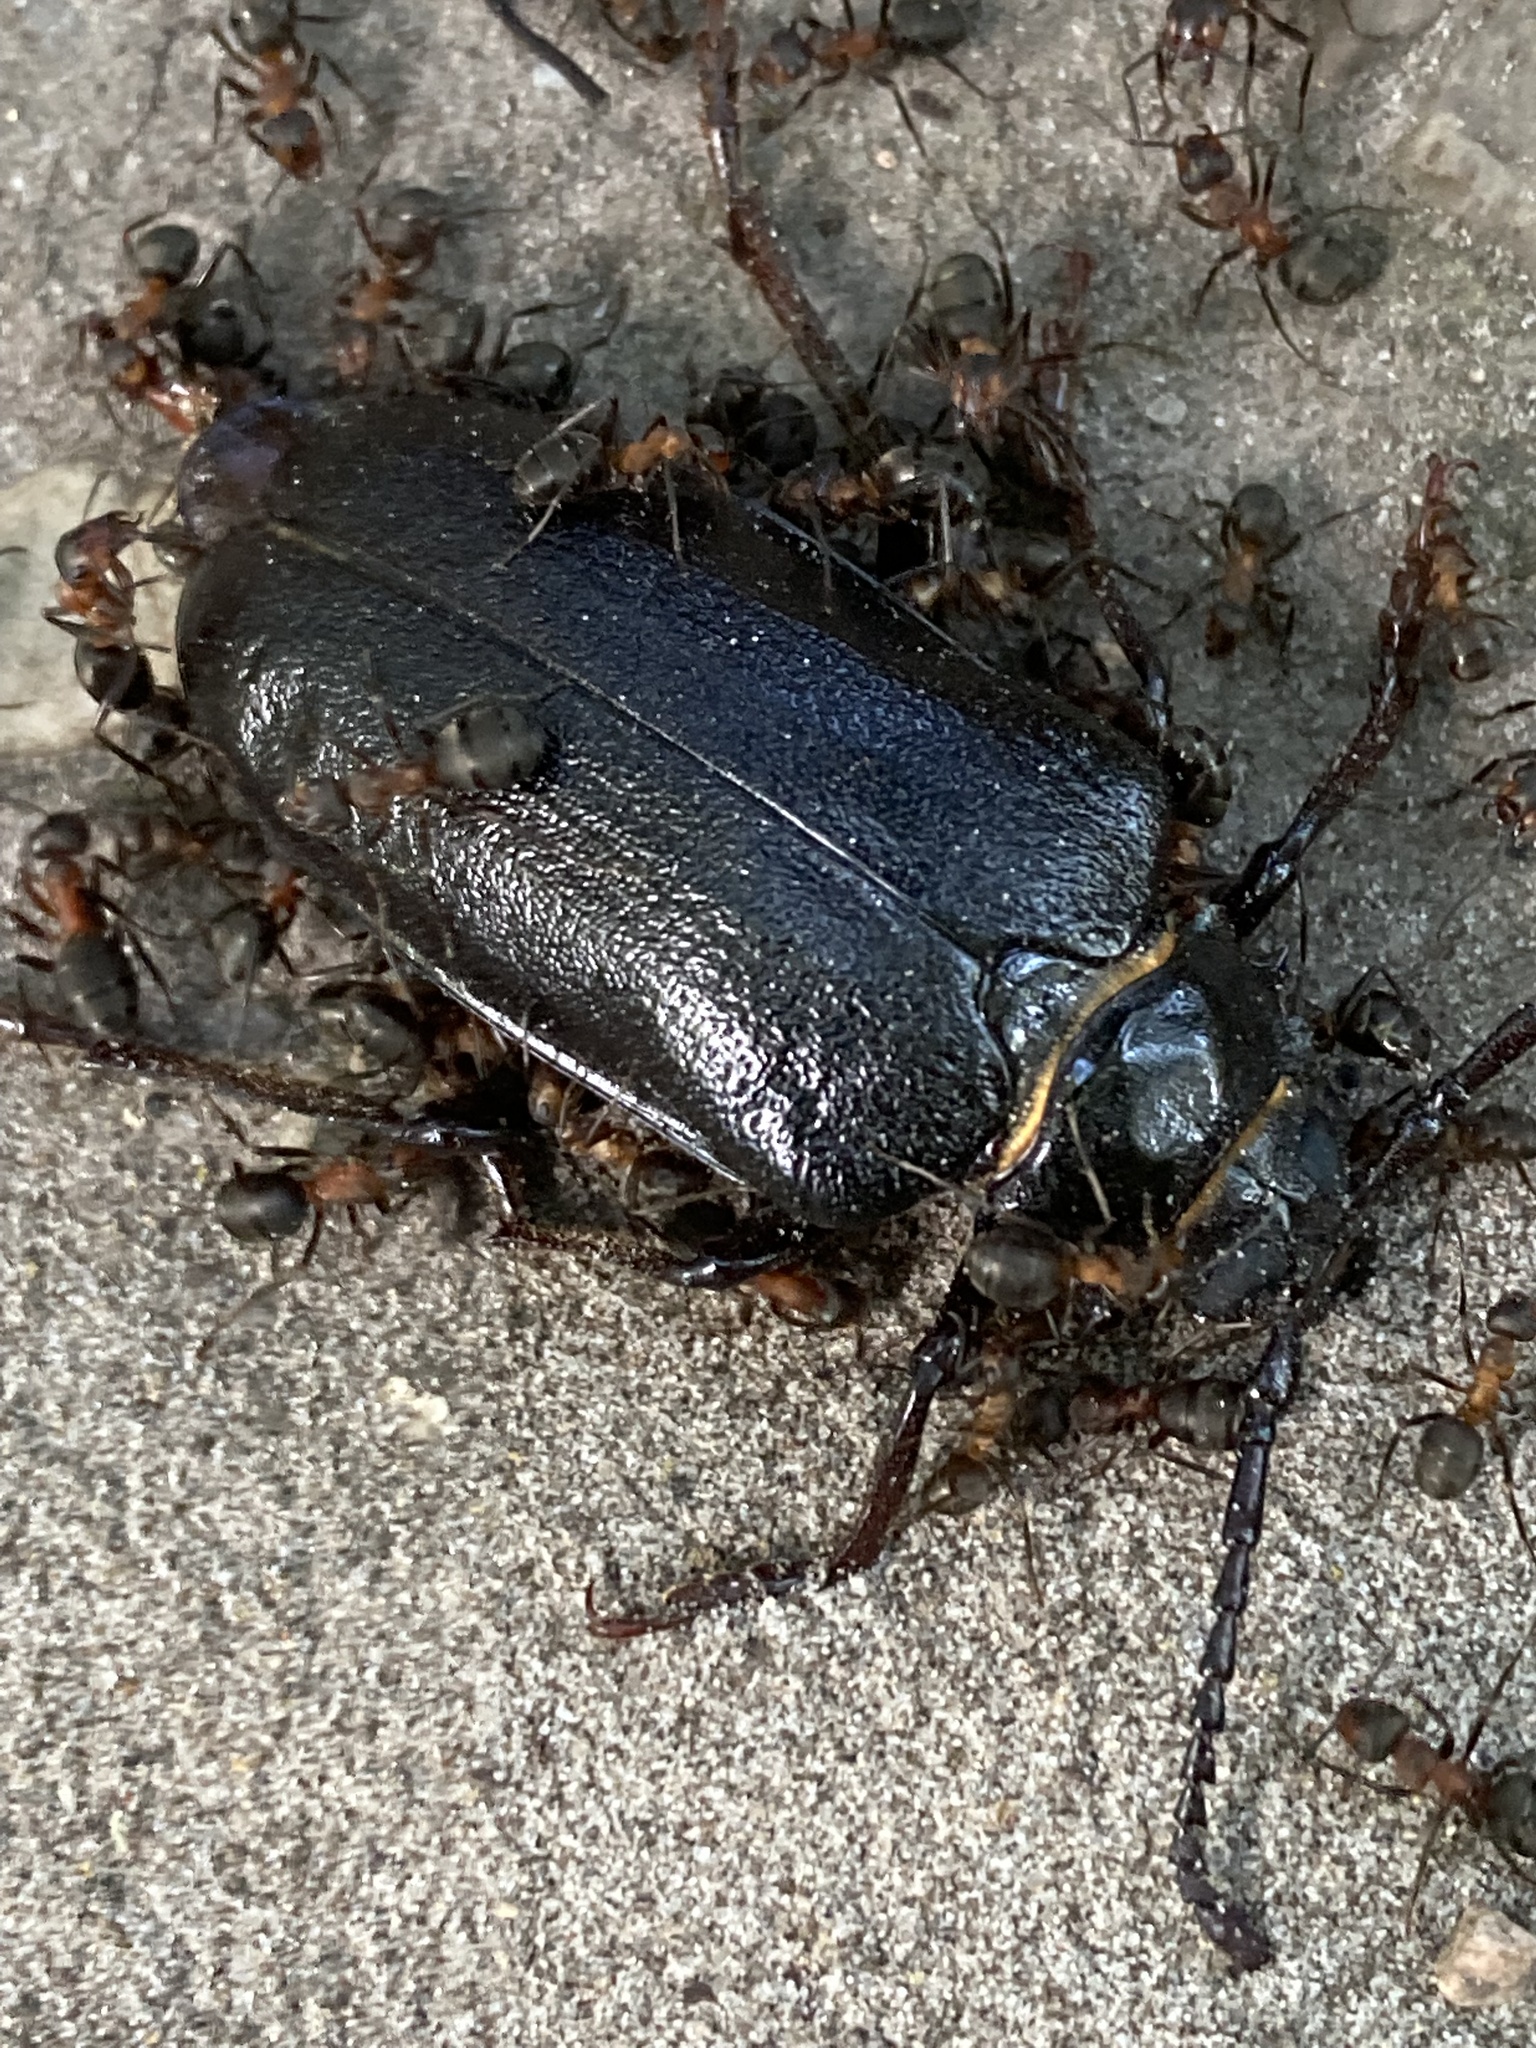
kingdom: Animalia
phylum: Arthropoda
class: Insecta
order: Coleoptera
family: Cerambycidae
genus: Prionus
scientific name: Prionus coriarius
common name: Tanner beetle
